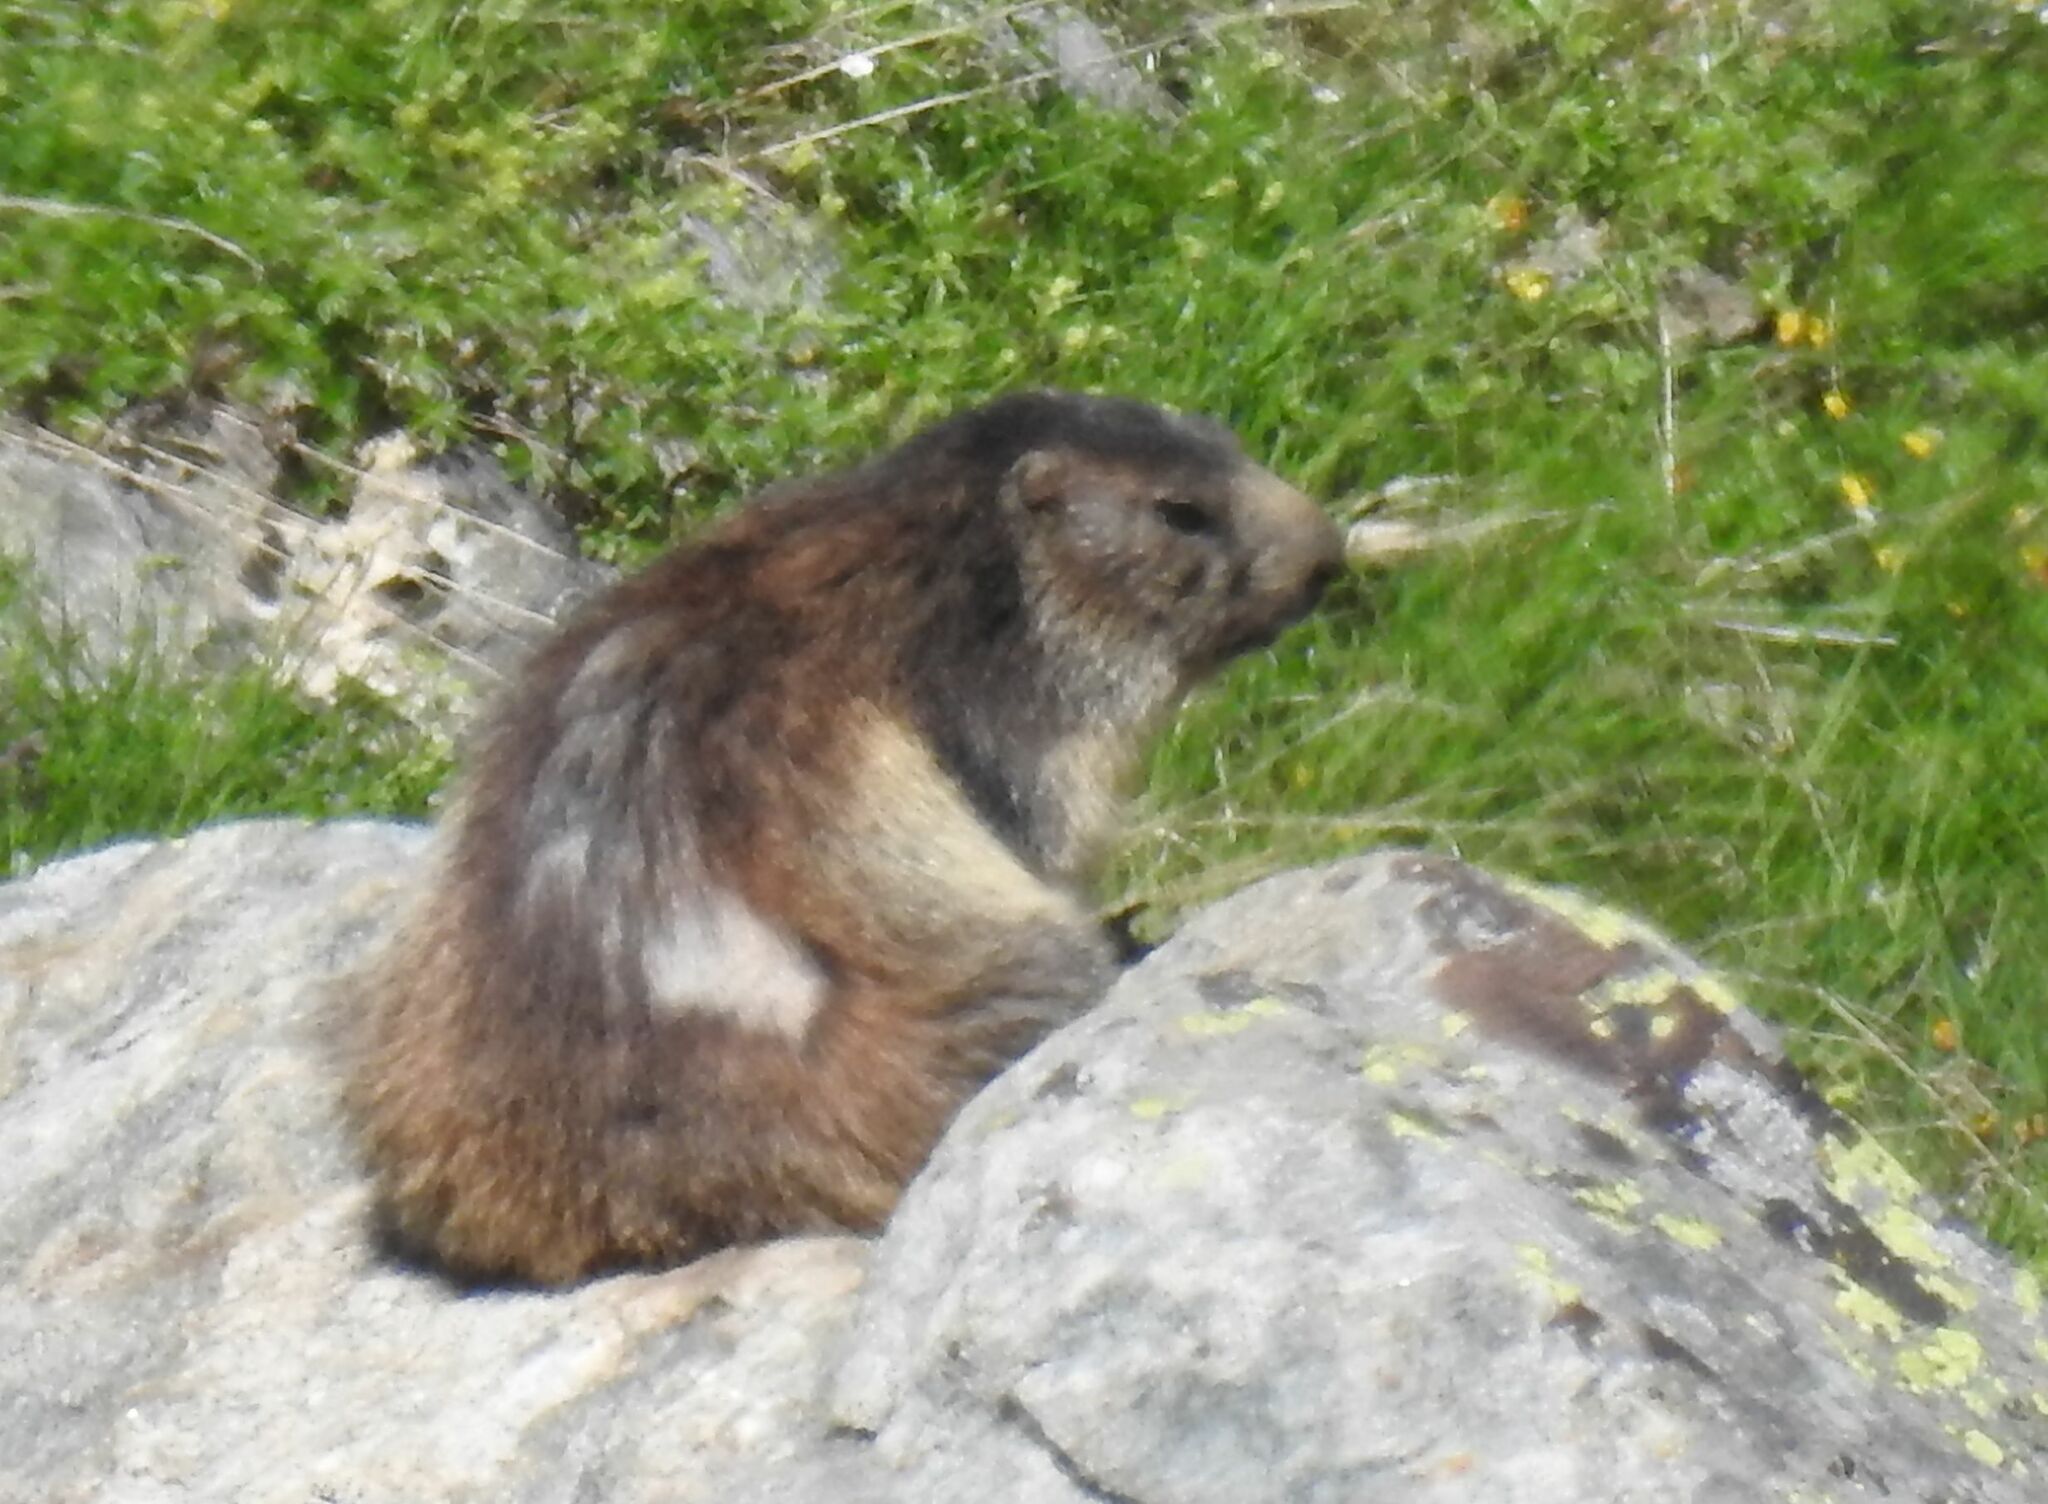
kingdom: Animalia
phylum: Chordata
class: Mammalia
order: Rodentia
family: Sciuridae
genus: Marmota
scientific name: Marmota marmota
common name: Alpine marmot
